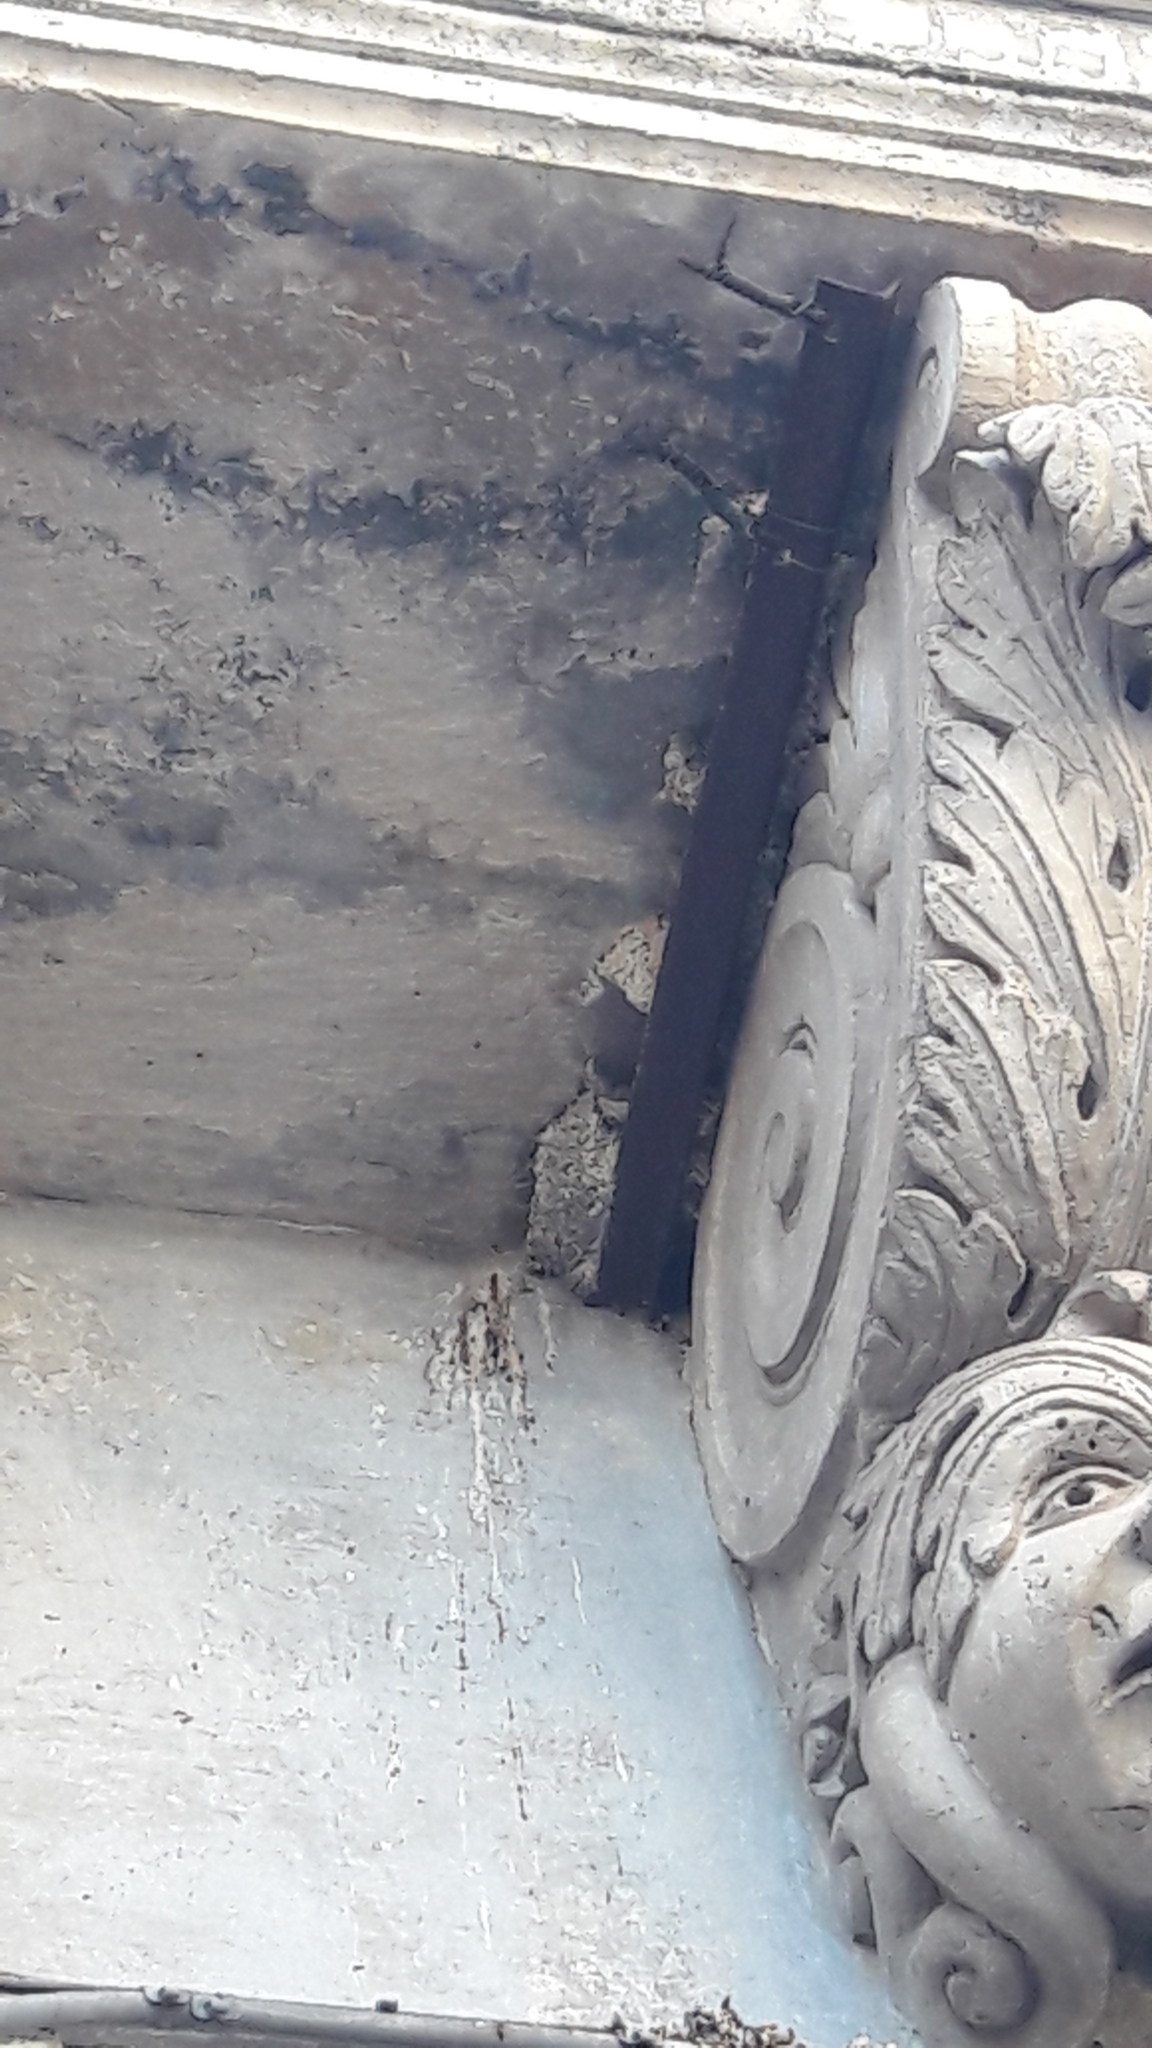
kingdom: Animalia
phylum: Chordata
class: Aves
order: Passeriformes
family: Hirundinidae
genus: Delichon
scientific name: Delichon urbicum
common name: Common house martin
